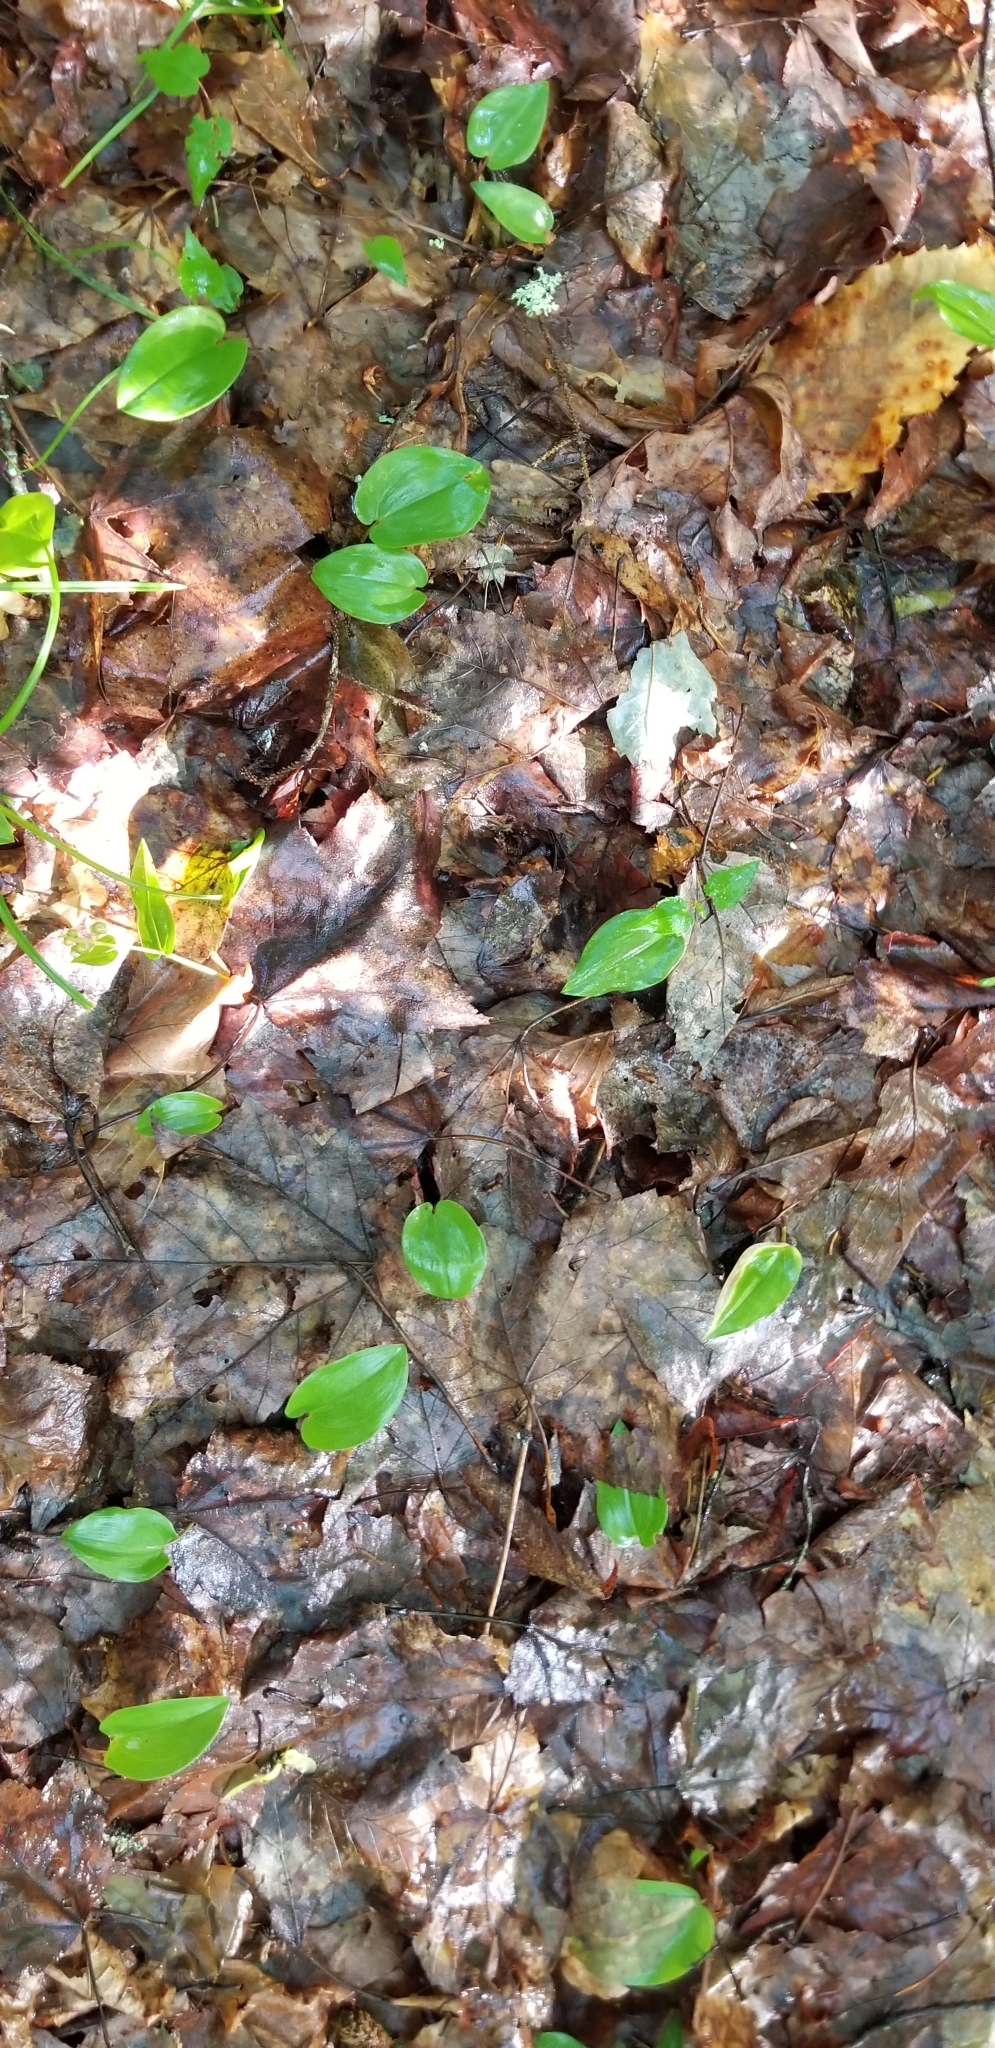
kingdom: Plantae
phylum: Tracheophyta
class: Liliopsida
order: Asparagales
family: Asparagaceae
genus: Maianthemum
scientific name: Maianthemum canadense
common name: False lily-of-the-valley
